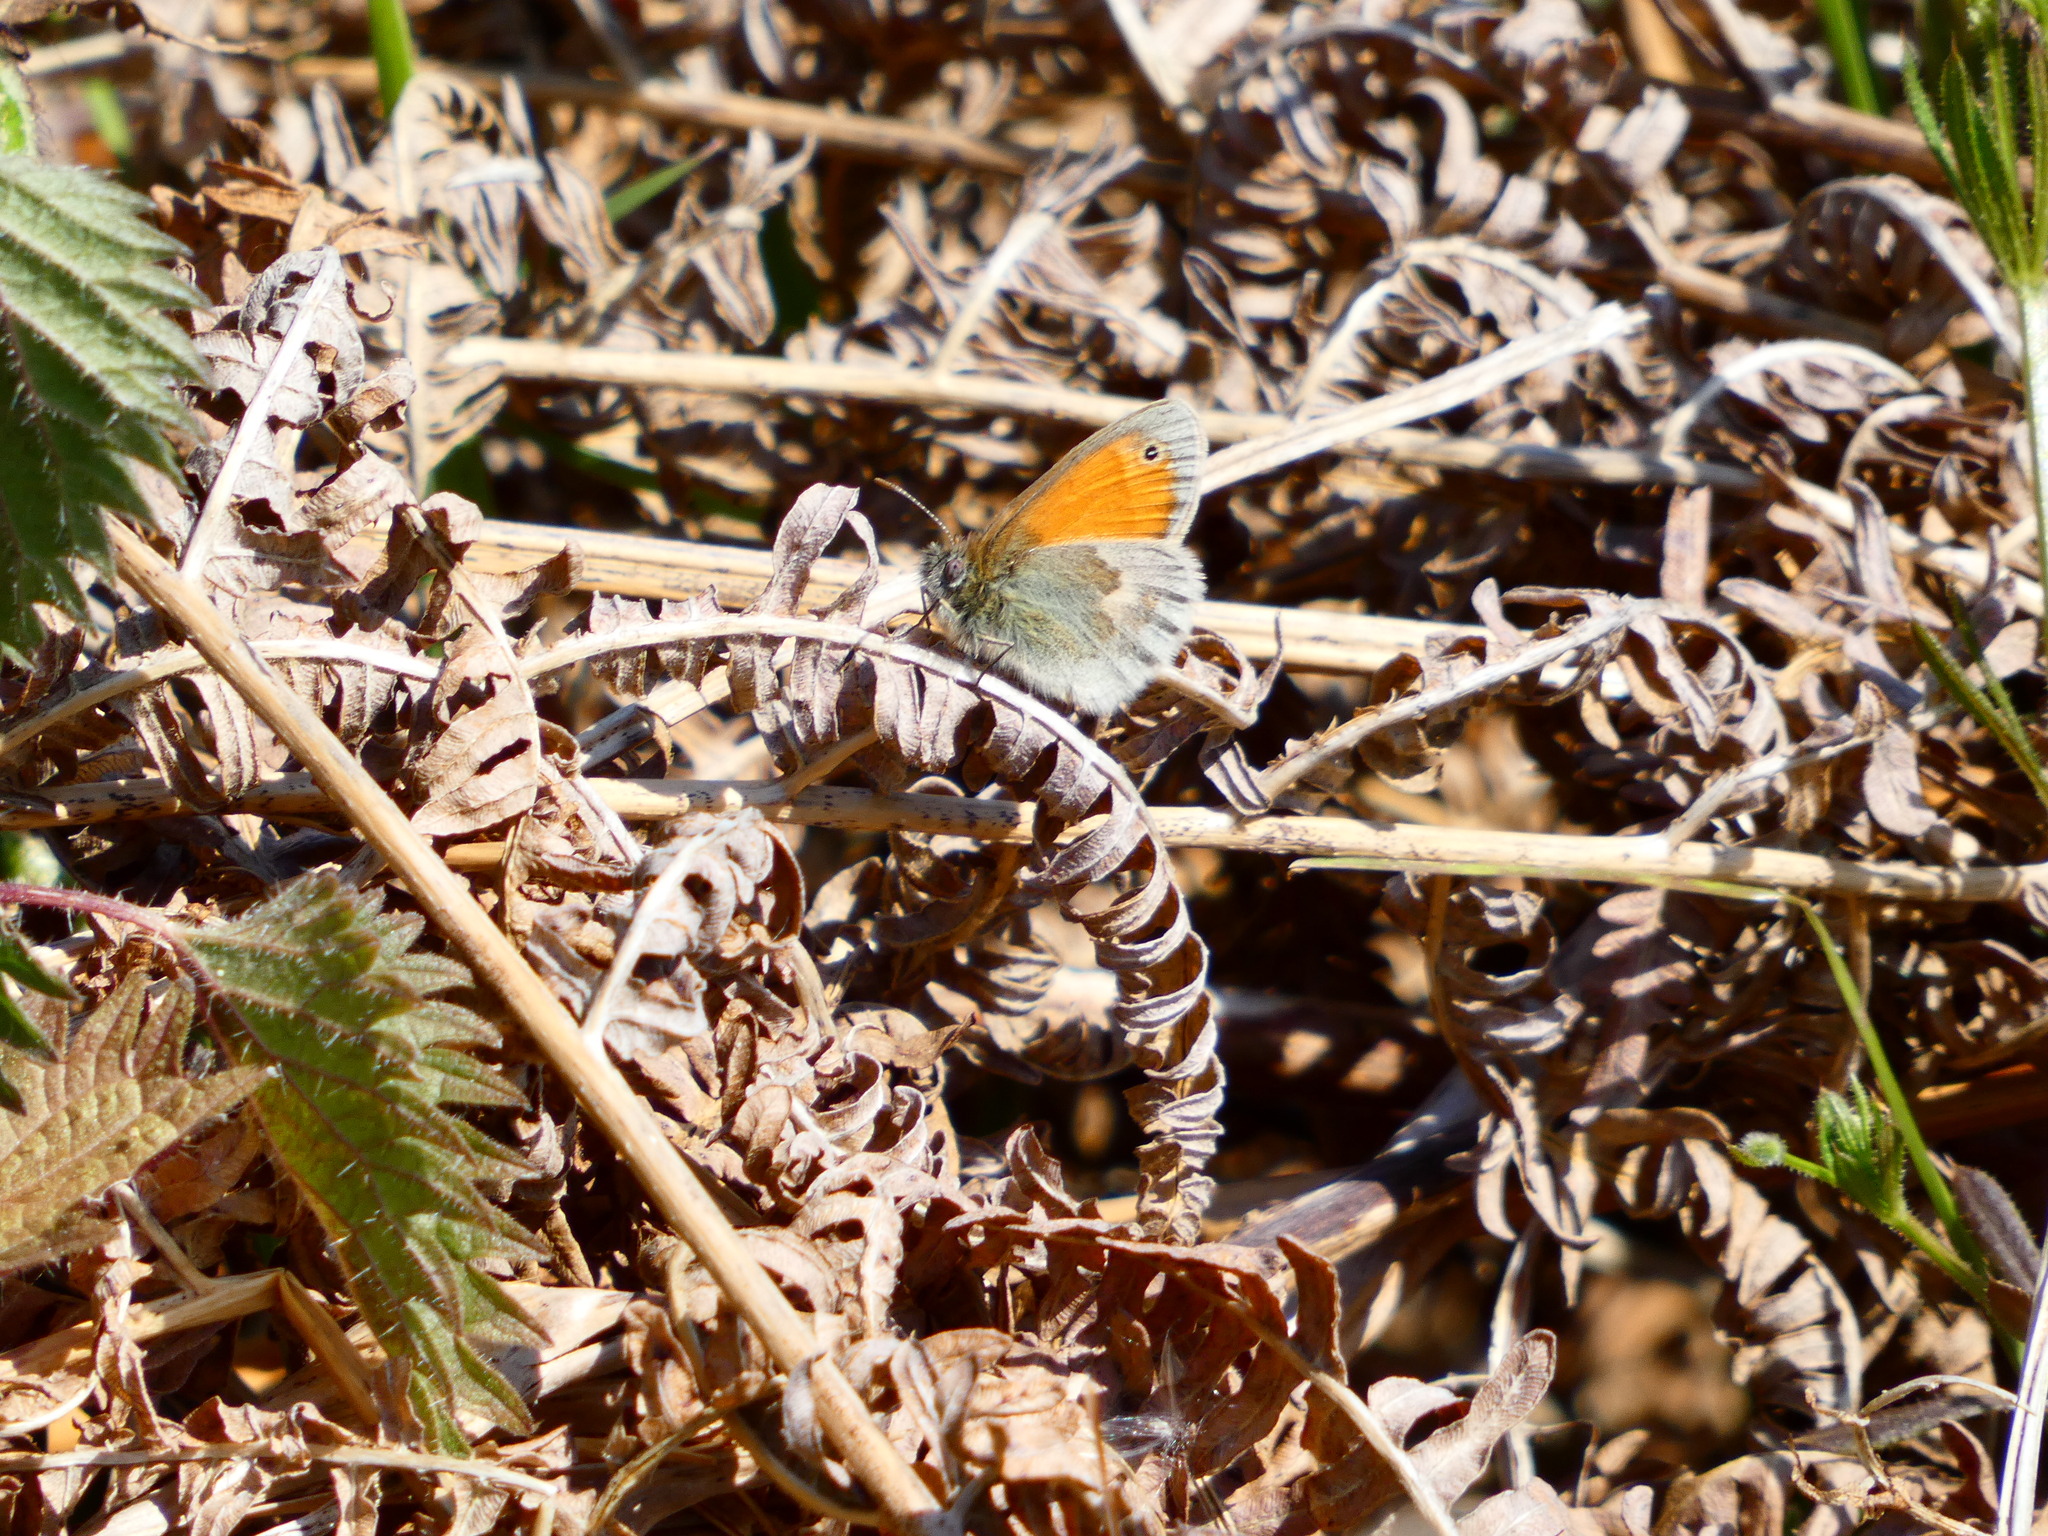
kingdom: Animalia
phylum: Arthropoda
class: Insecta
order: Lepidoptera
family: Nymphalidae
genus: Coenonympha
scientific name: Coenonympha pamphilus
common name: Small heath
